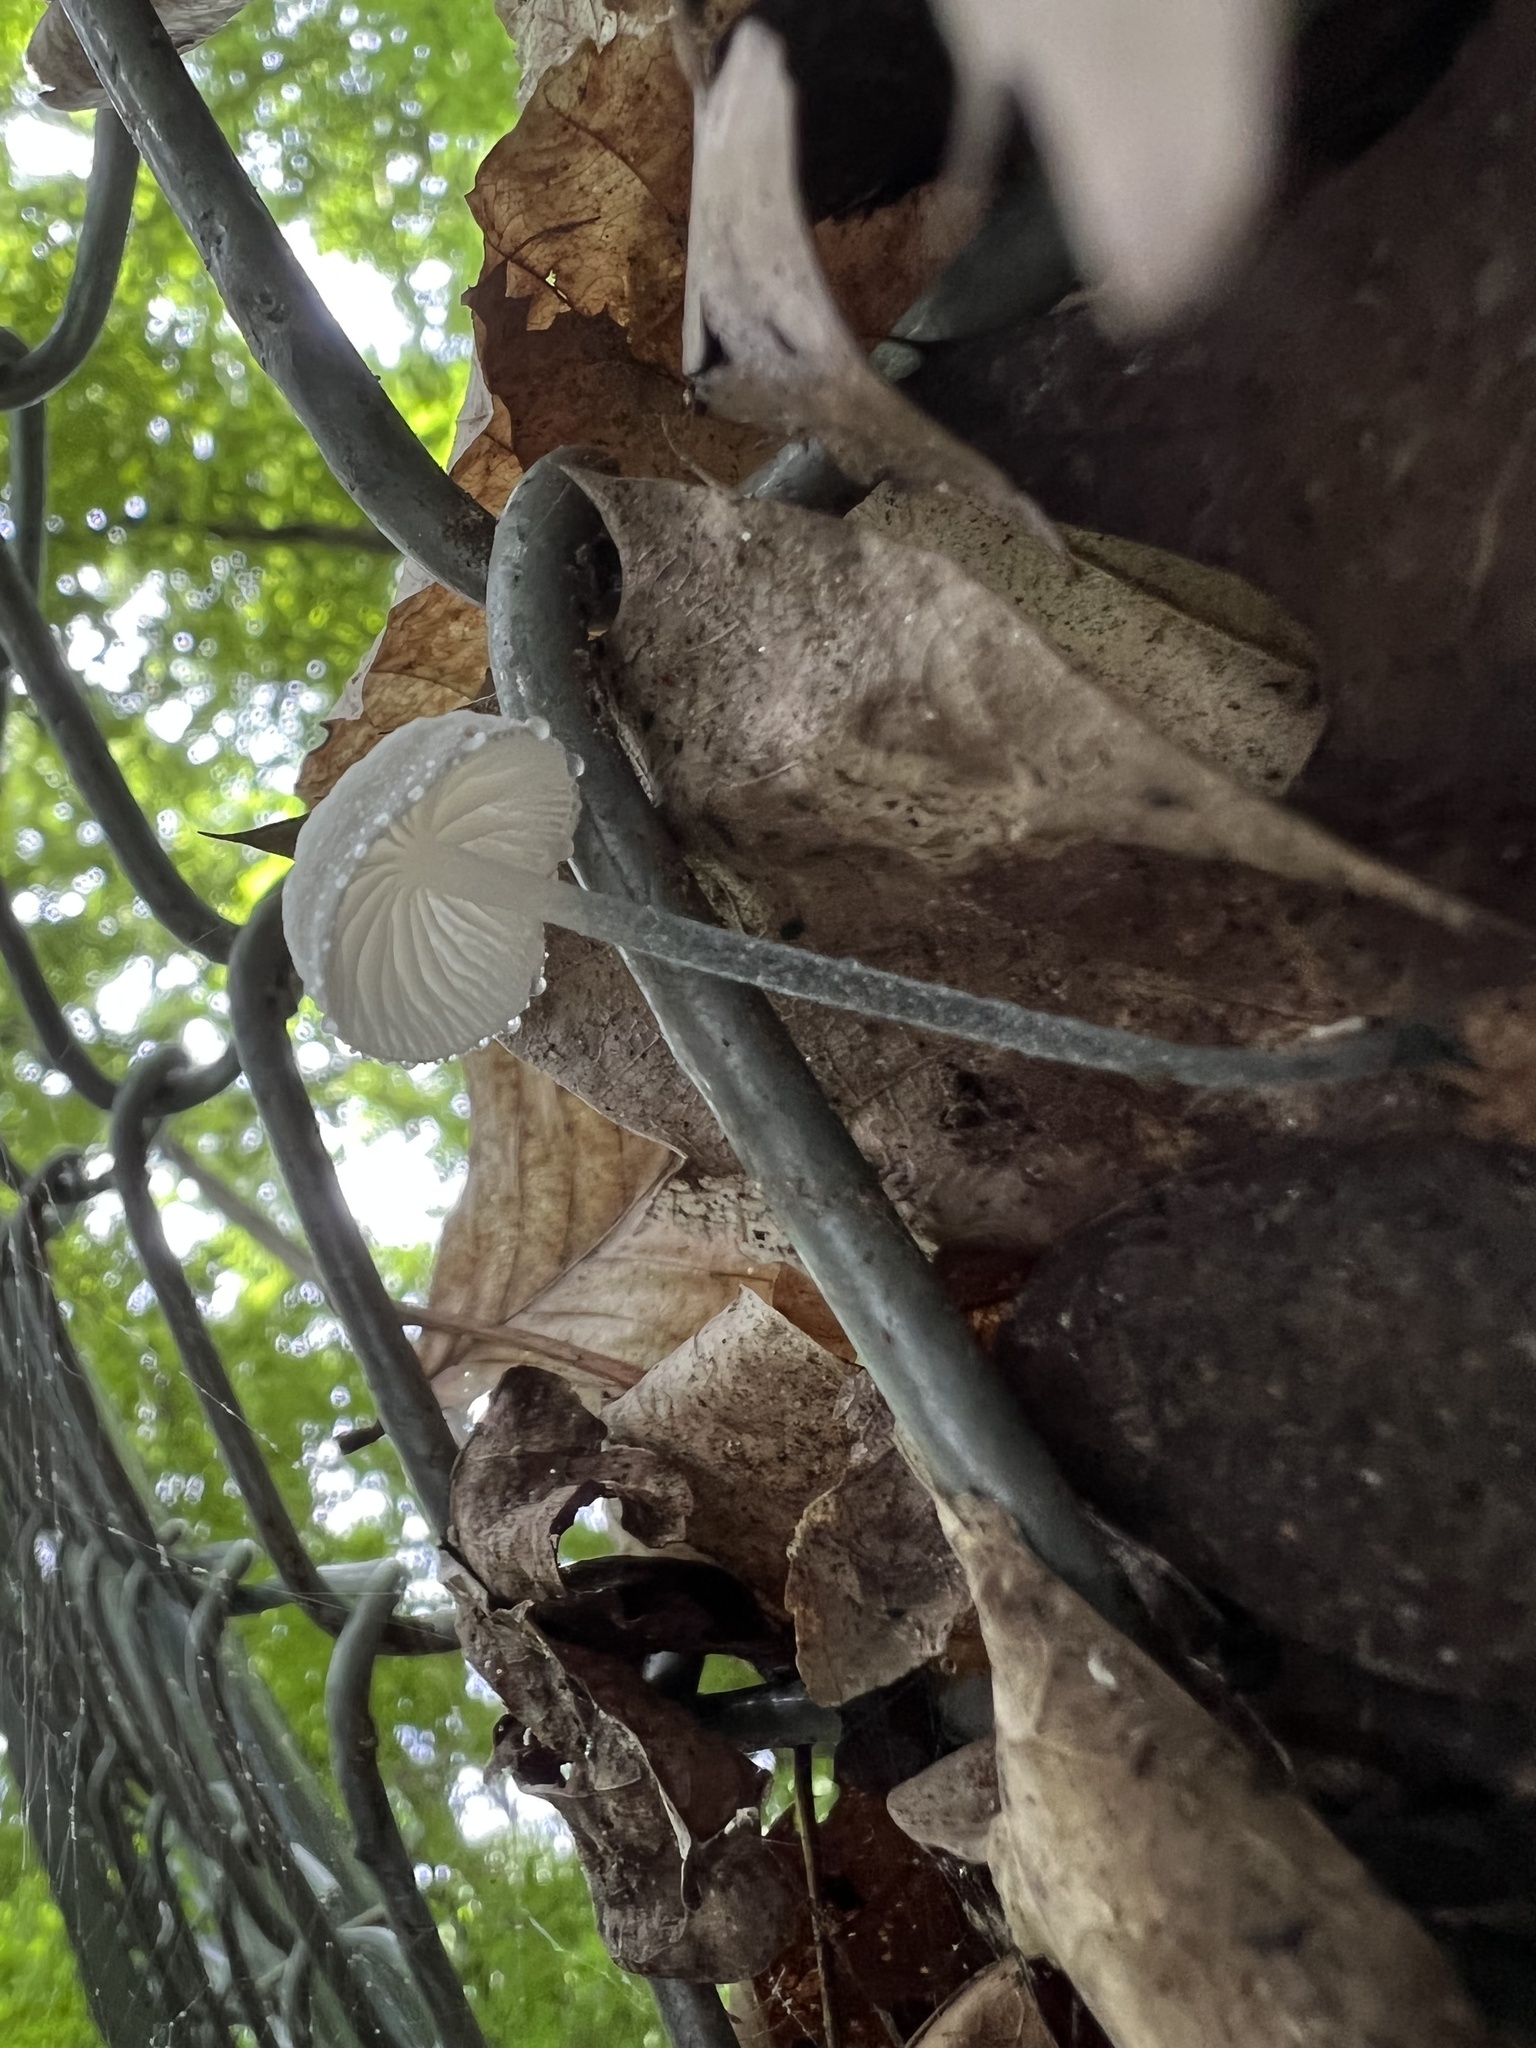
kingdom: Fungi
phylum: Basidiomycota
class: Agaricomycetes
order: Agaricales
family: Marasmiaceae
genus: Tetrapyrgos
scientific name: Tetrapyrgos nigripes
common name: Black-stalked marasmius
